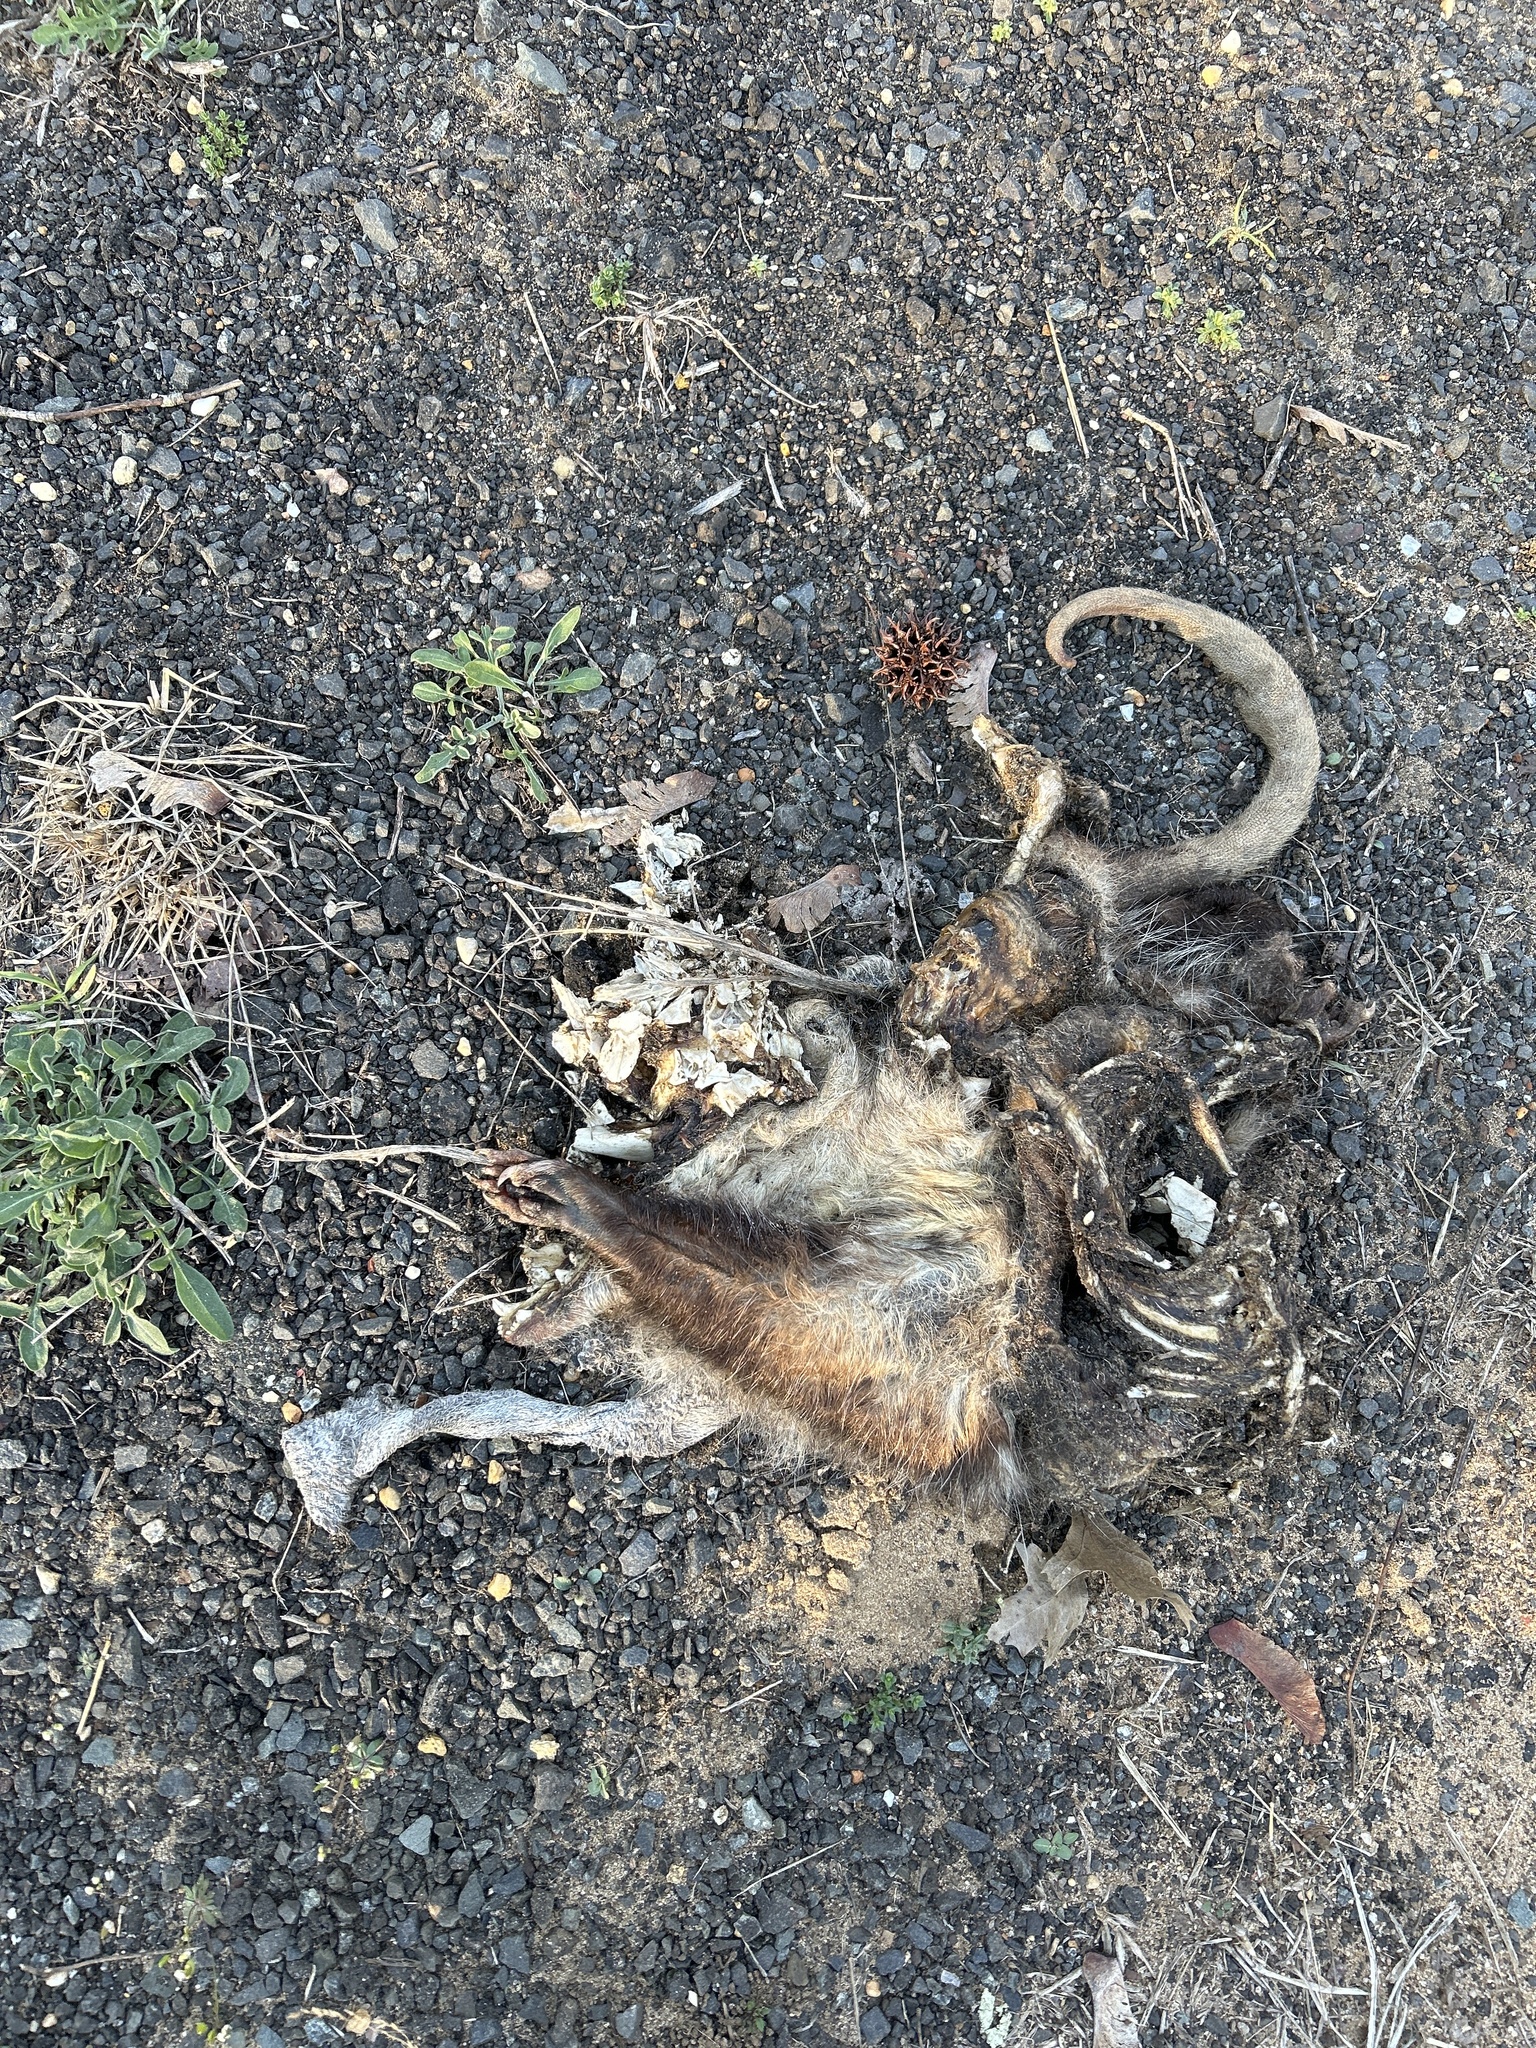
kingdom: Animalia
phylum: Chordata
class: Mammalia
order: Didelphimorphia
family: Didelphidae
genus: Didelphis
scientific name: Didelphis virginiana
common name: Virginia opossum
